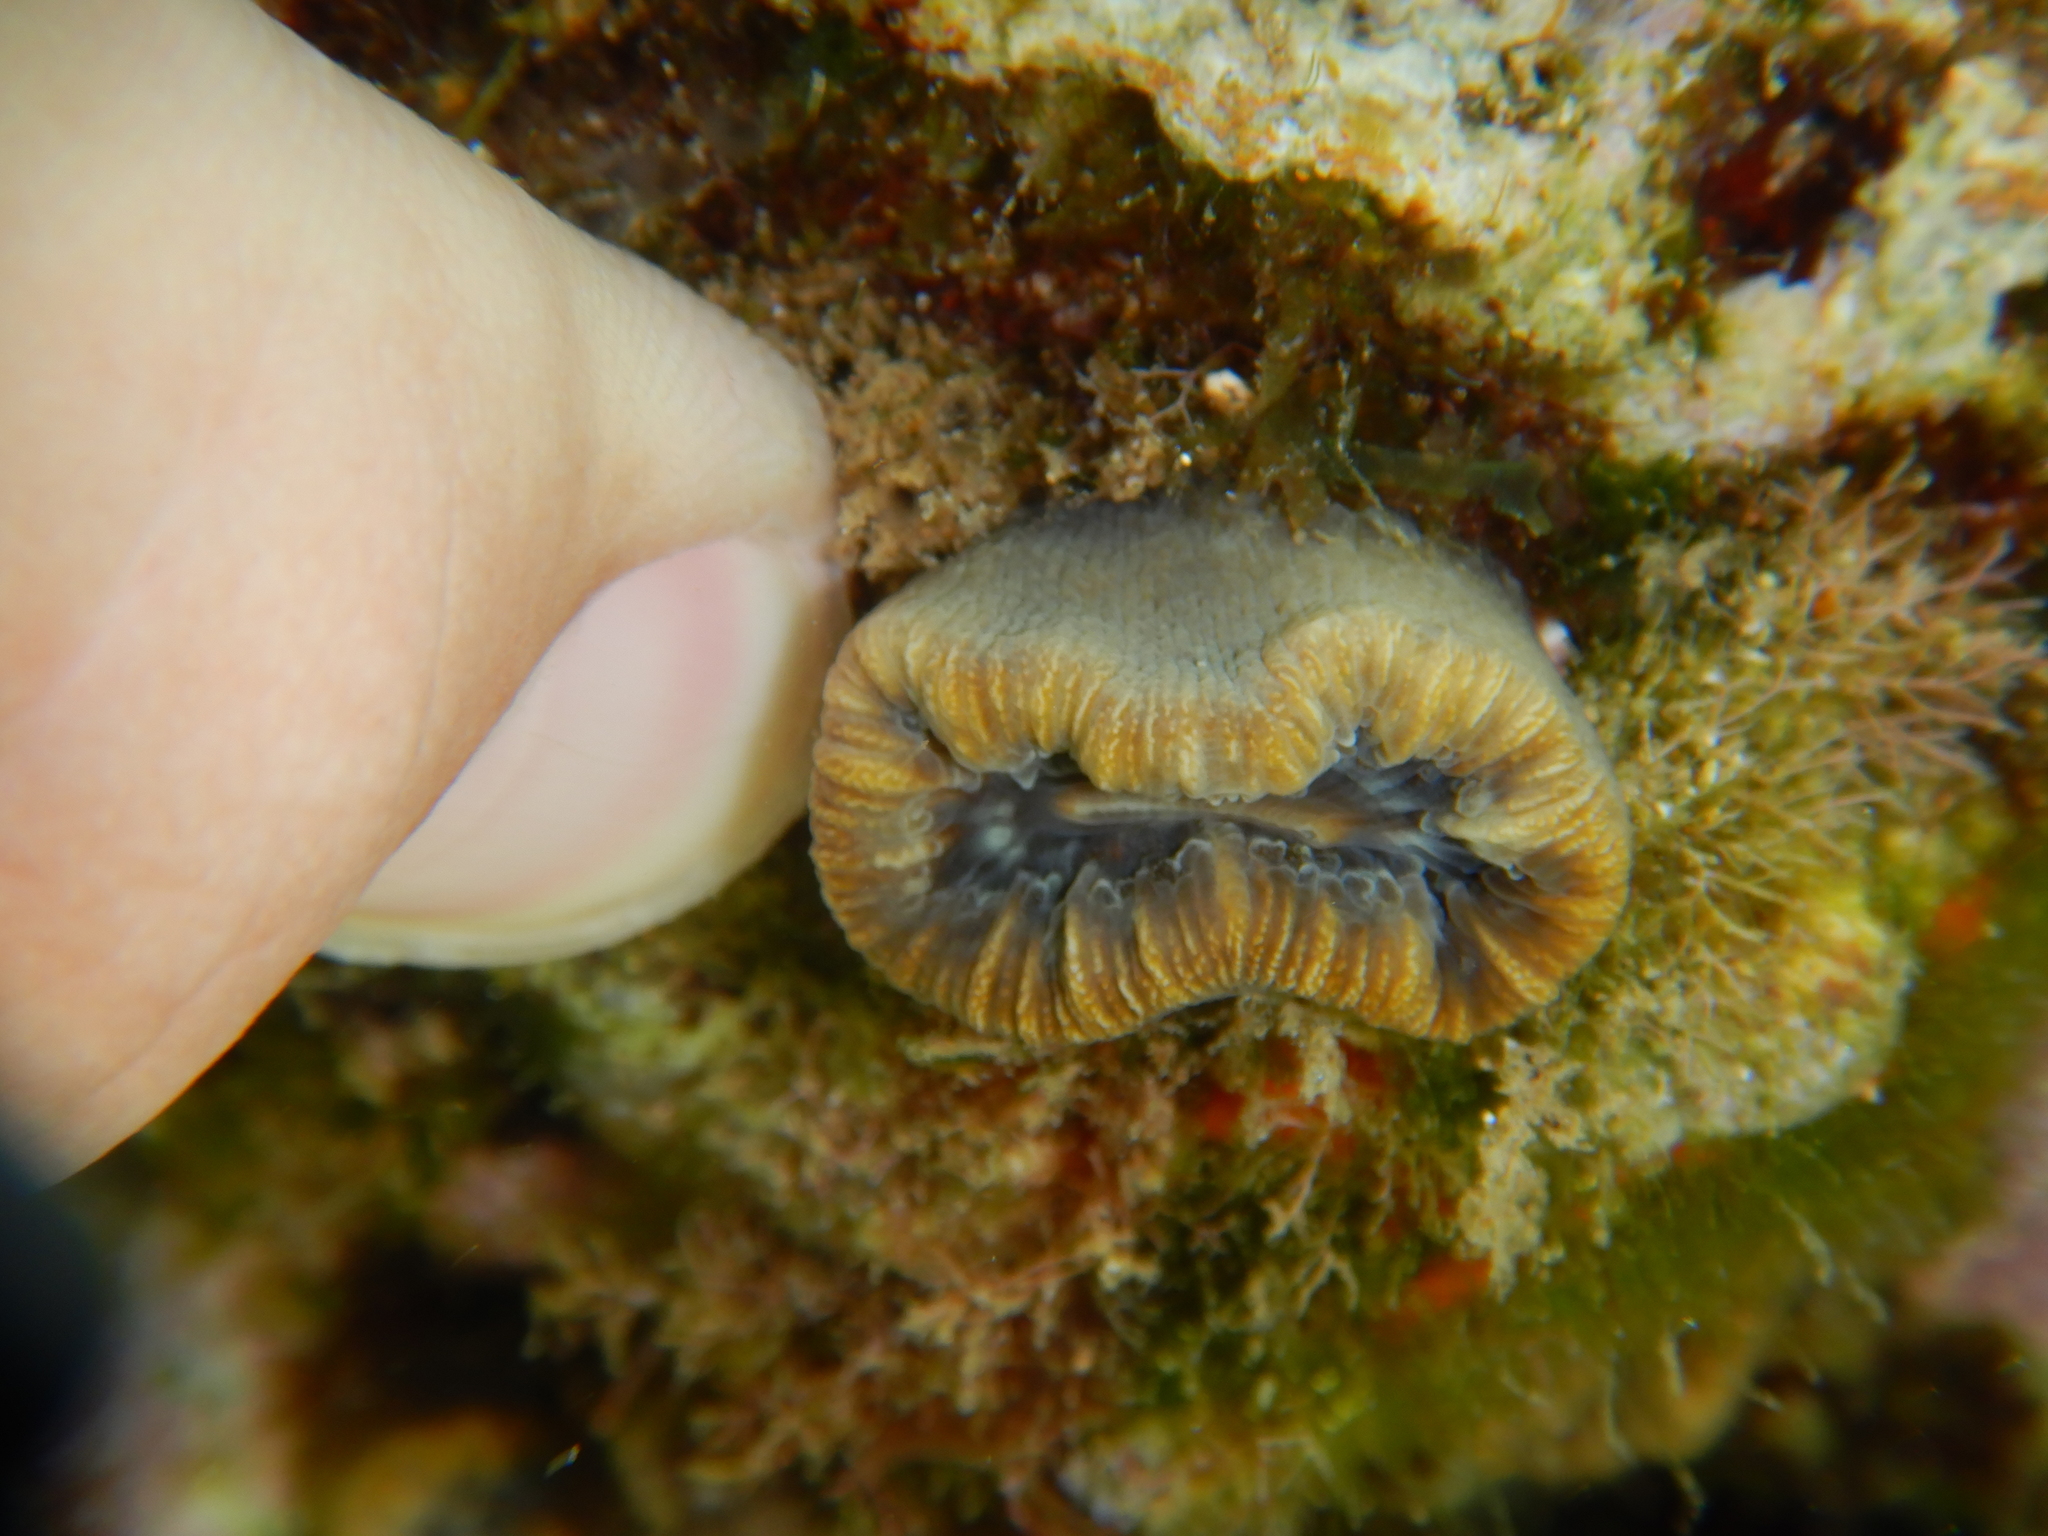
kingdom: Animalia
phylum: Cnidaria
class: Anthozoa
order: Scleractinia
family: Dendrophylliidae
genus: Balanophyllia
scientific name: Balanophyllia europaea
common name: Scarlet coral
